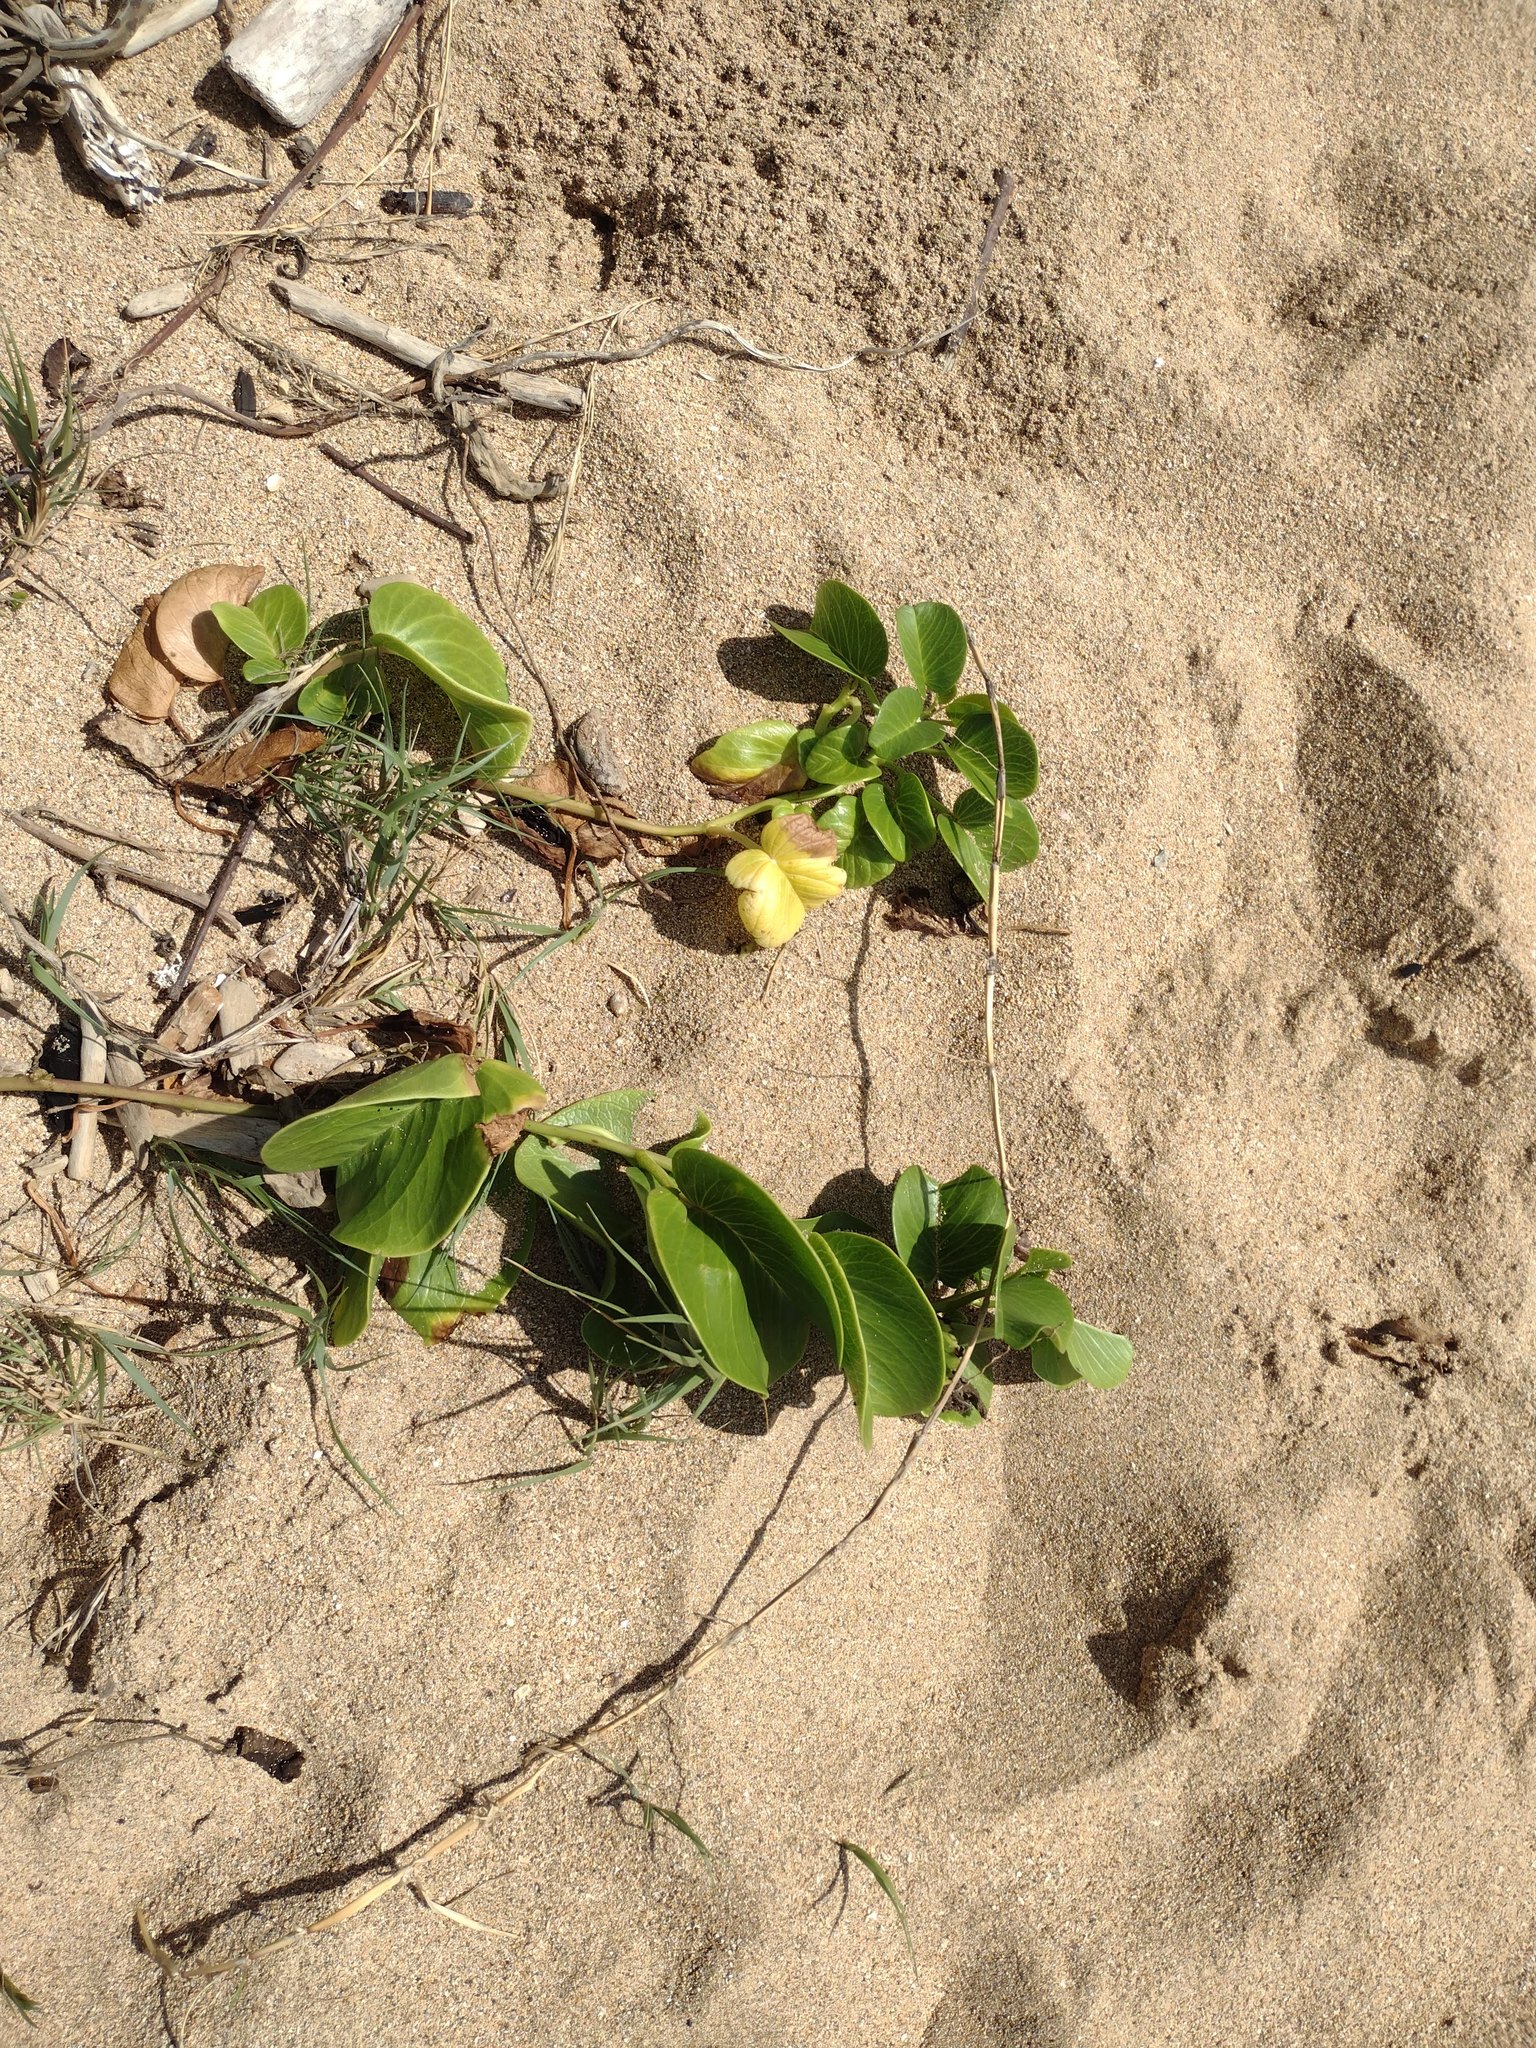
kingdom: Plantae
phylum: Tracheophyta
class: Magnoliopsida
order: Solanales
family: Convolvulaceae
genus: Ipomoea
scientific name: Ipomoea pes-caprae
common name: Beach morning glory
